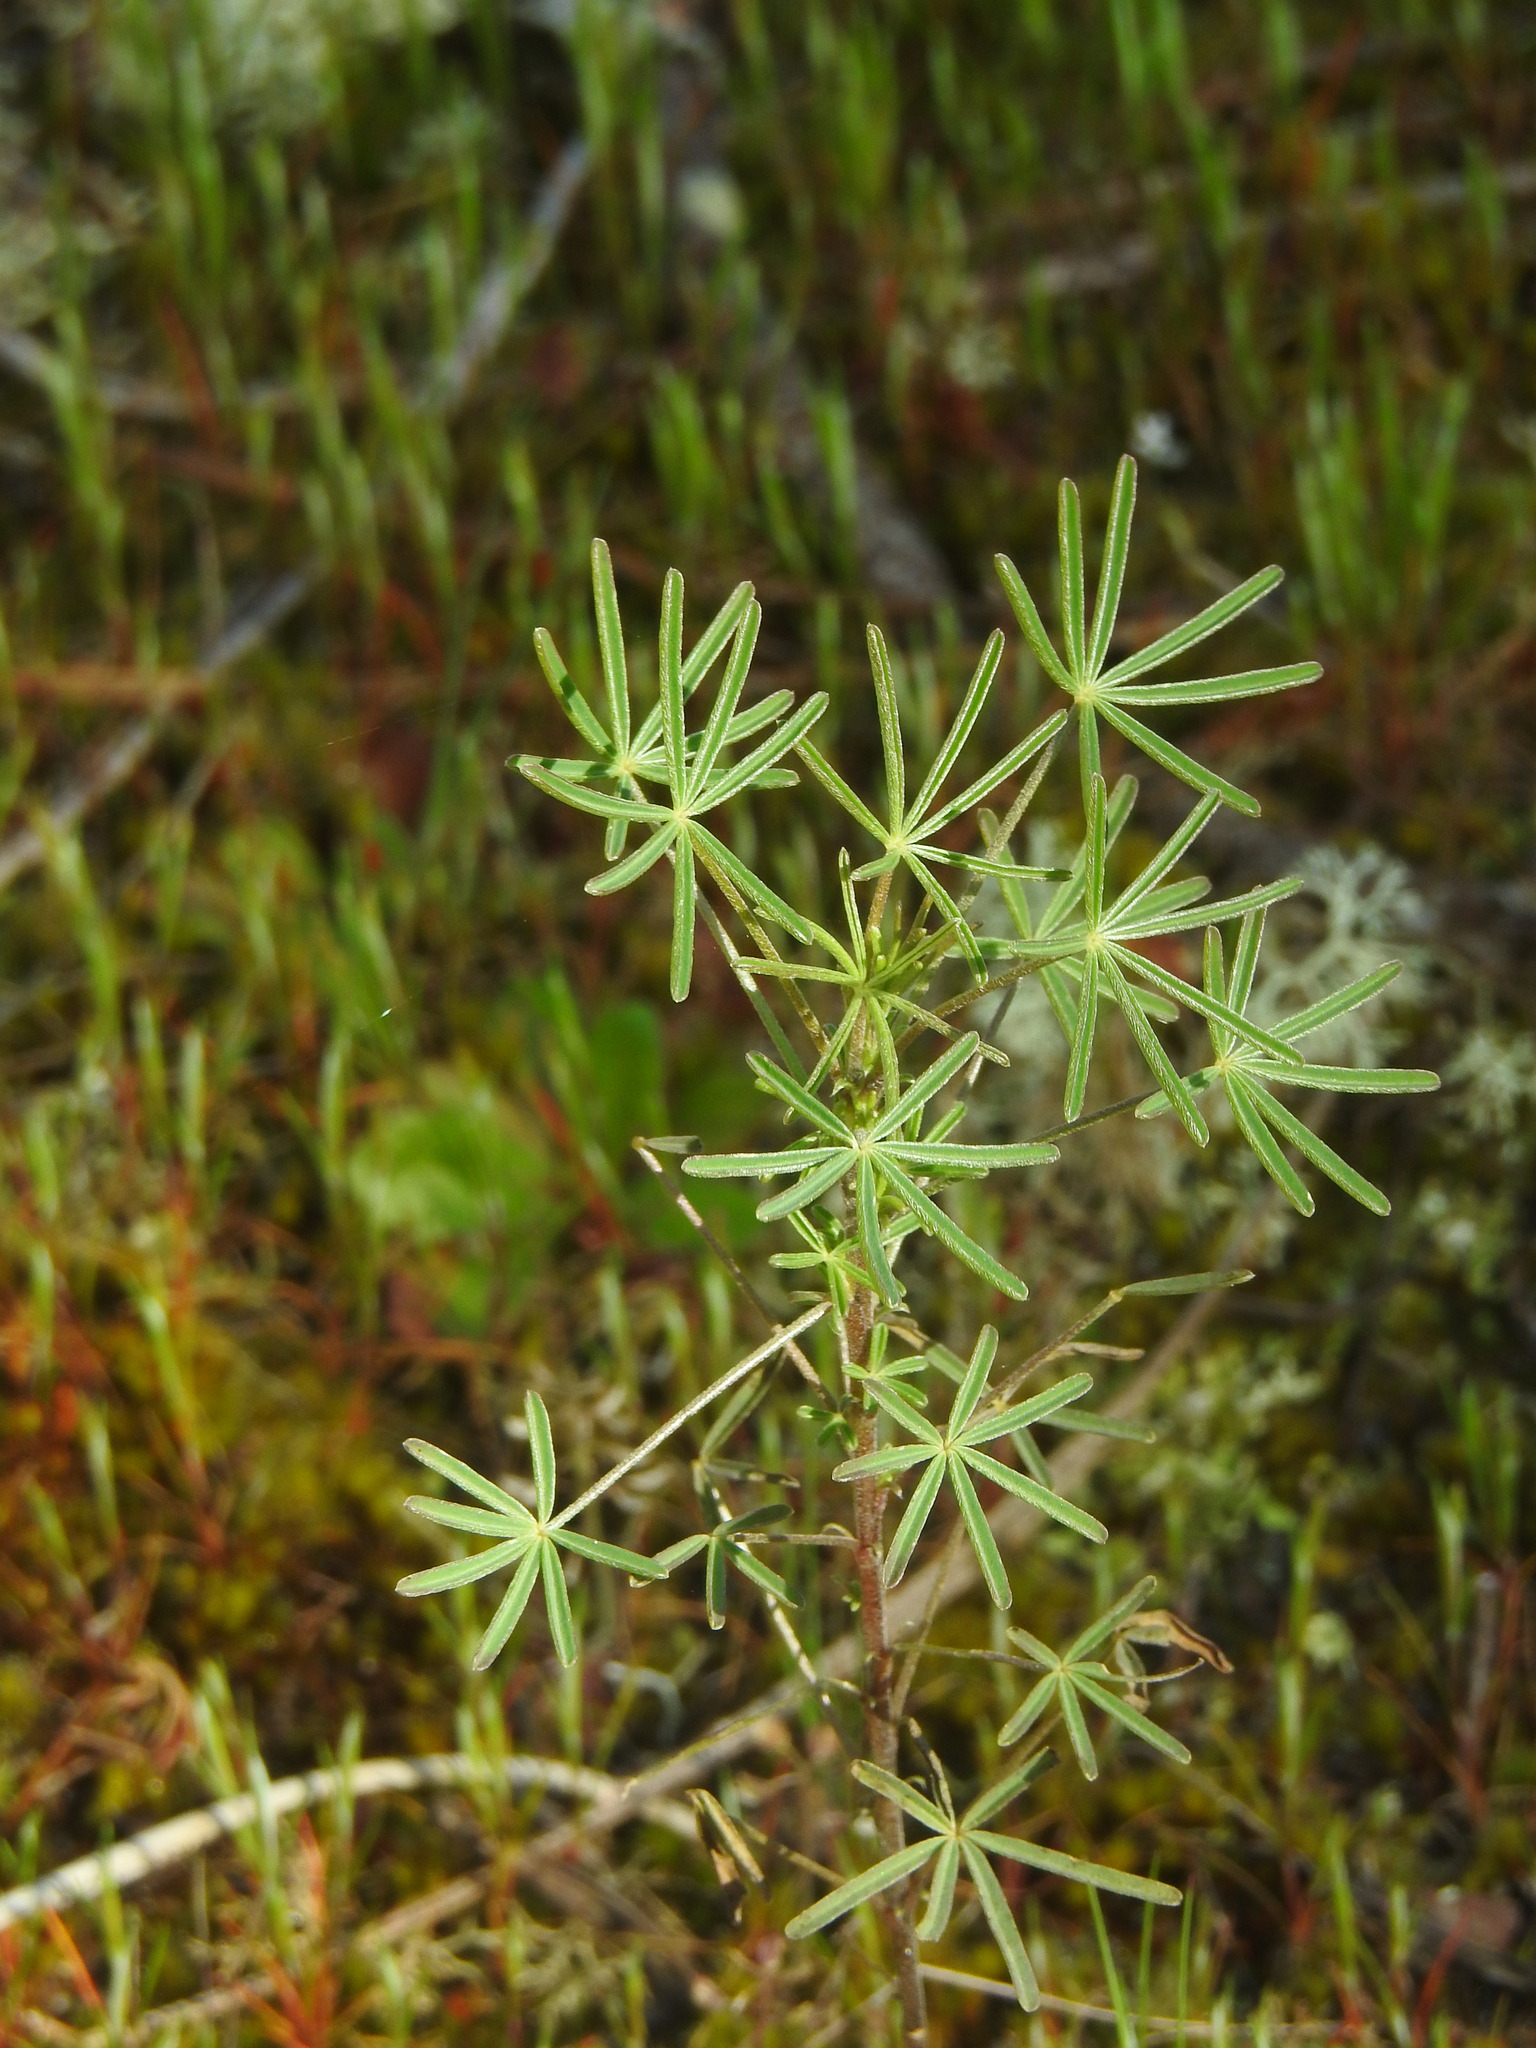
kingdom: Plantae
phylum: Tracheophyta
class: Magnoliopsida
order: Fabales
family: Fabaceae
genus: Lupinus
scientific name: Lupinus angustifolius
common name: Narrow-leaved lupin
